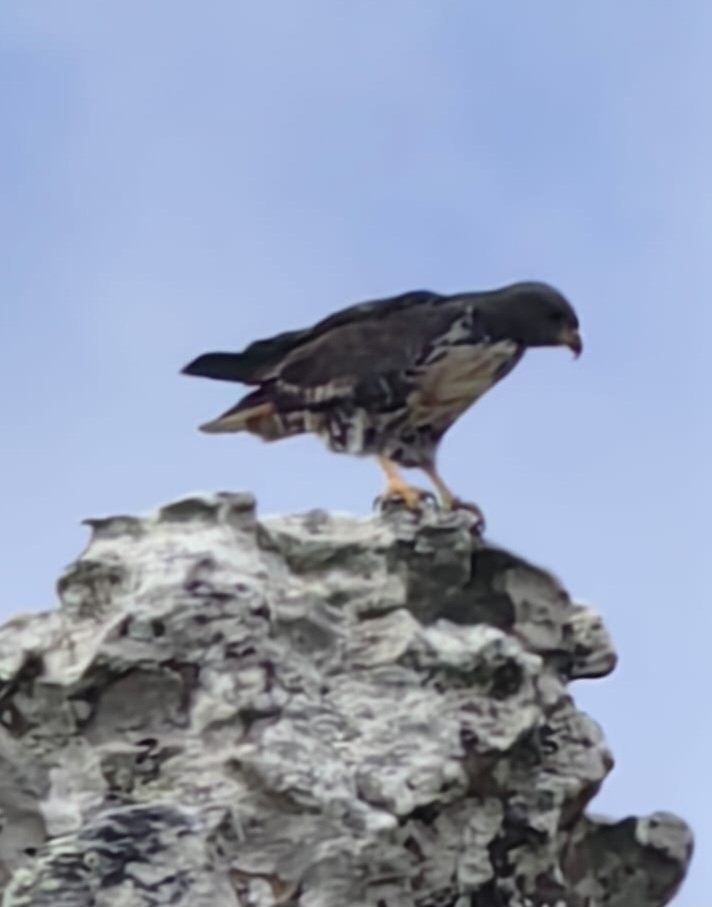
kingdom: Animalia
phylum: Chordata
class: Aves
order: Accipitriformes
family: Accipitridae
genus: Buteo
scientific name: Buteo rufofuscus
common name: Jackal buzzard
